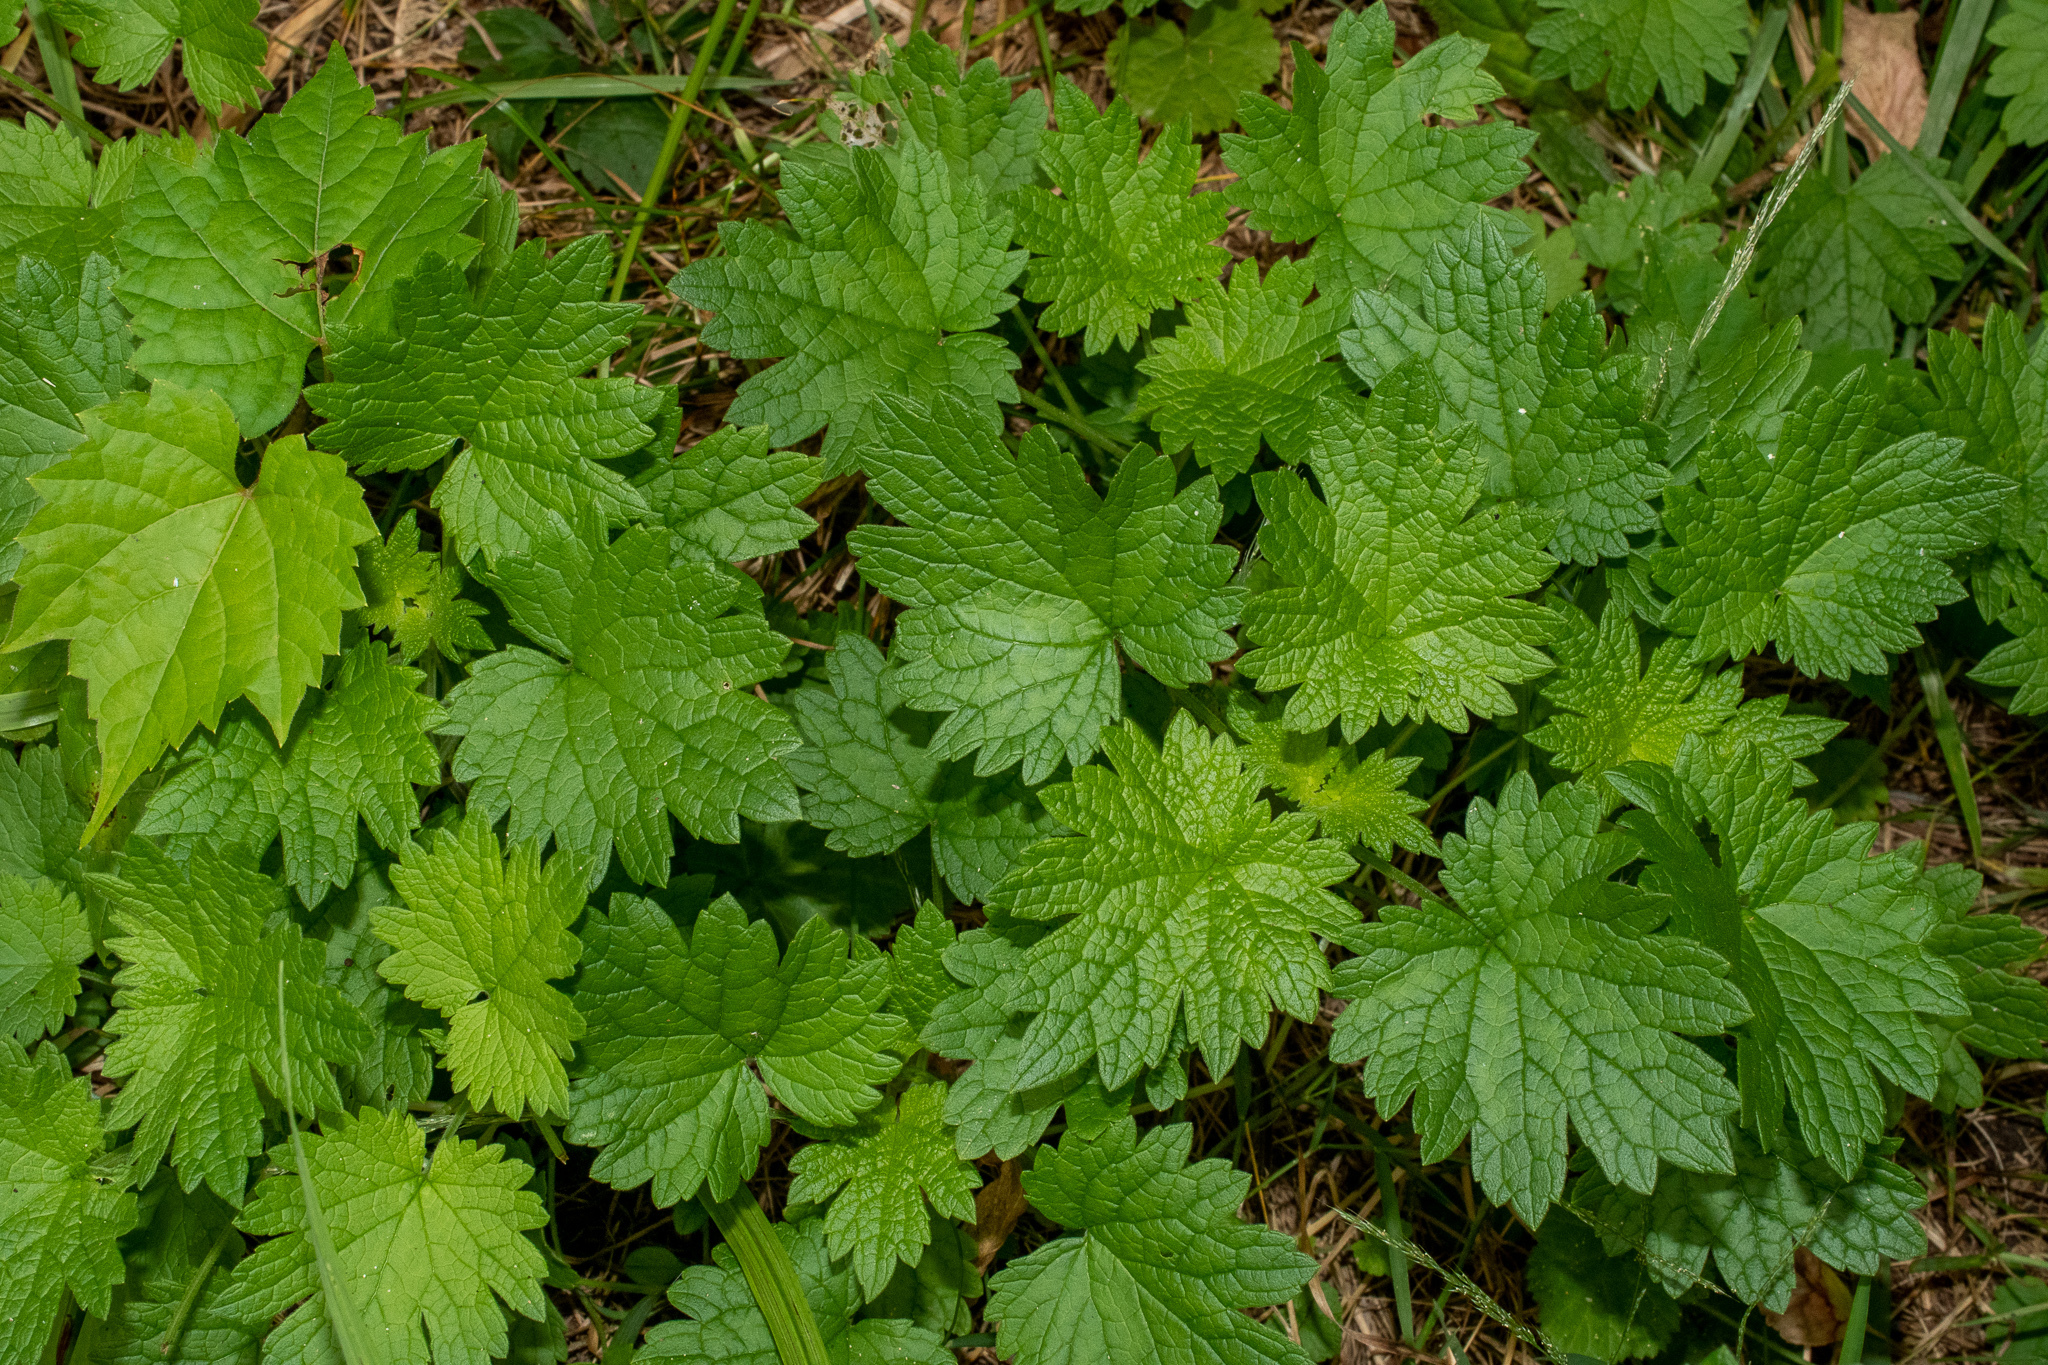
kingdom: Plantae
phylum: Tracheophyta
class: Magnoliopsida
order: Lamiales
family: Lamiaceae
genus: Leonurus
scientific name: Leonurus cardiaca
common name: Motherwort
